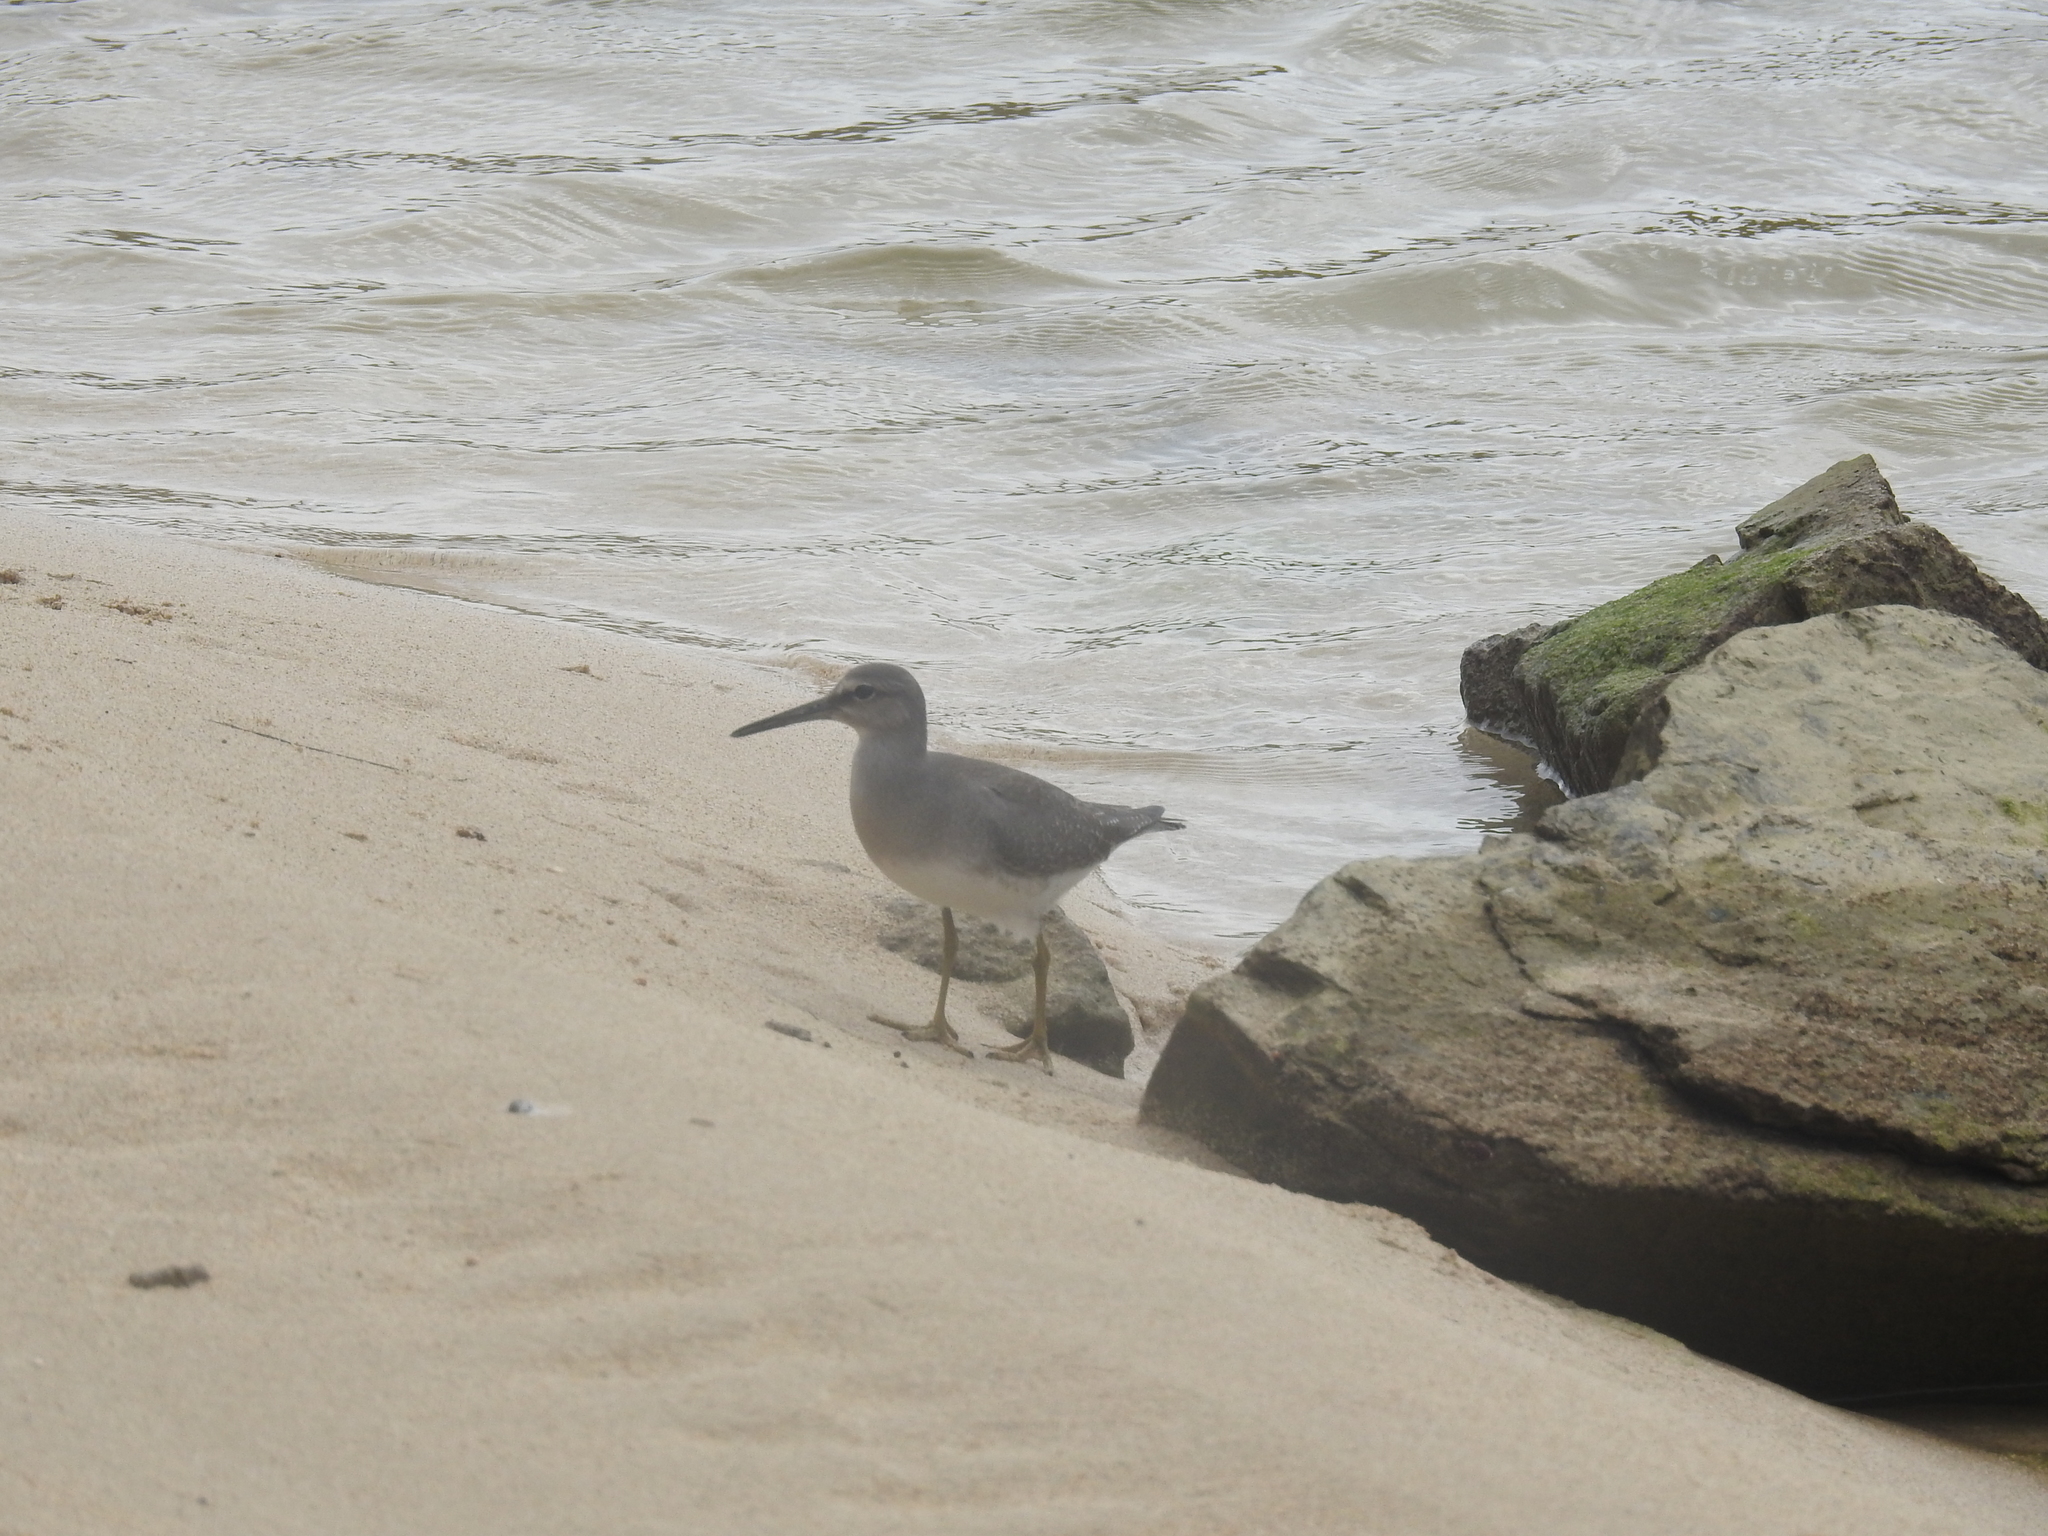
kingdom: Animalia
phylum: Chordata
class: Aves
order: Charadriiformes
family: Scolopacidae
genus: Tringa
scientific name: Tringa brevipes
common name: Grey-tailed tattler
